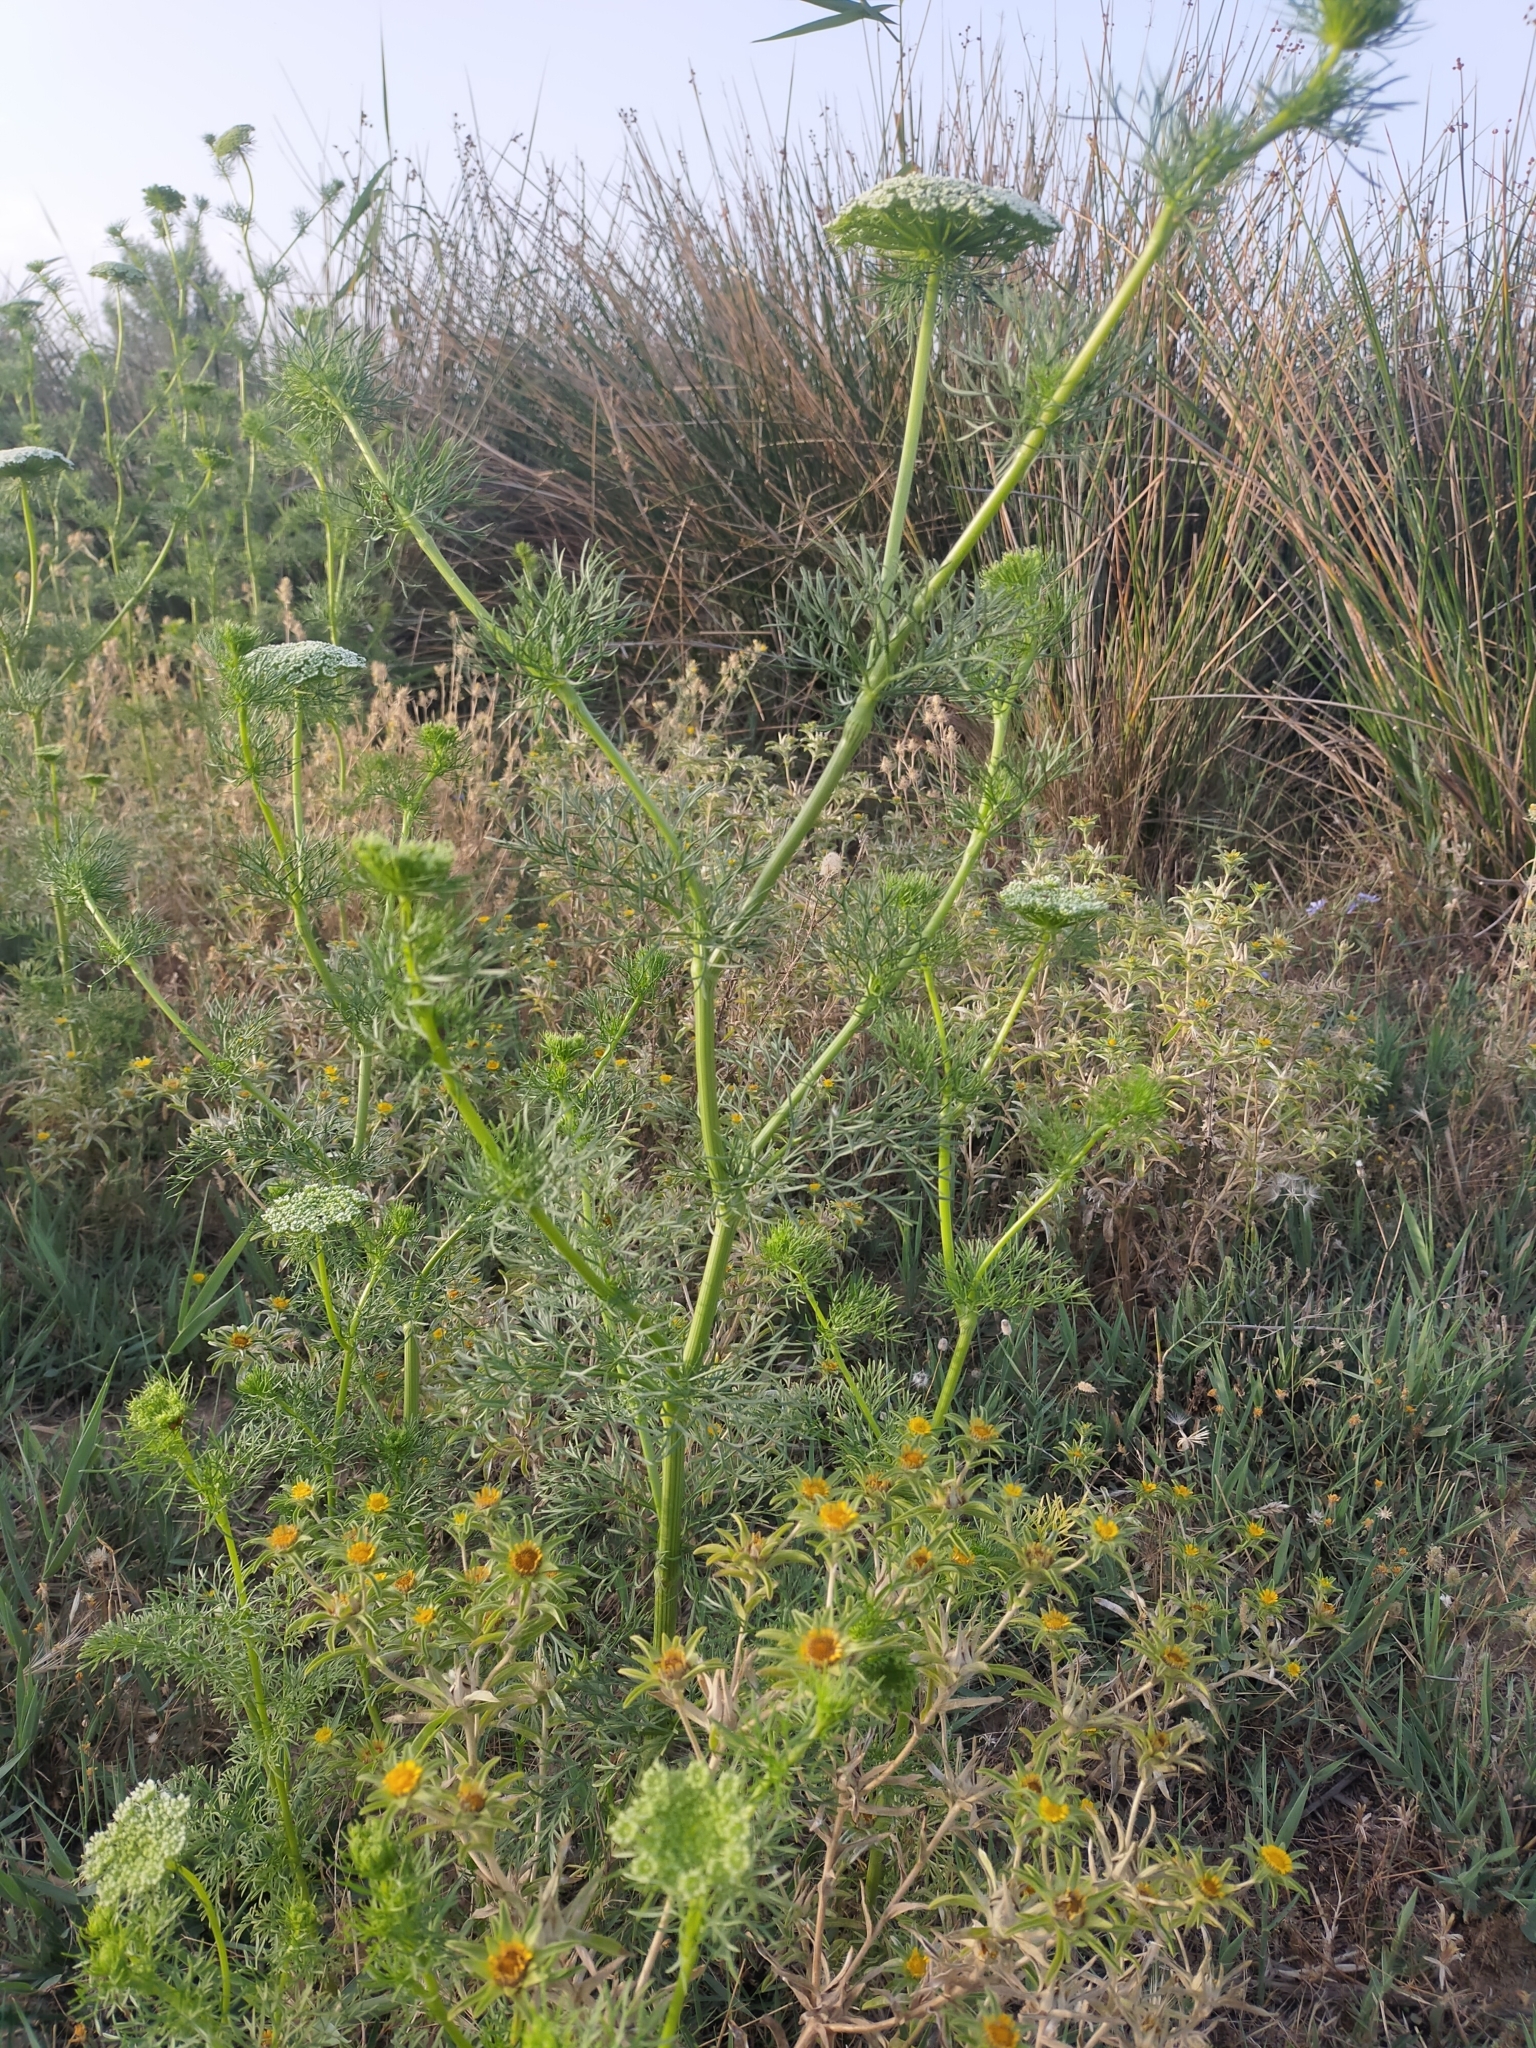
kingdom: Plantae
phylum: Tracheophyta
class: Magnoliopsida
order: Apiales
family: Apiaceae
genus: Visnaga
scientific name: Visnaga daucoides
